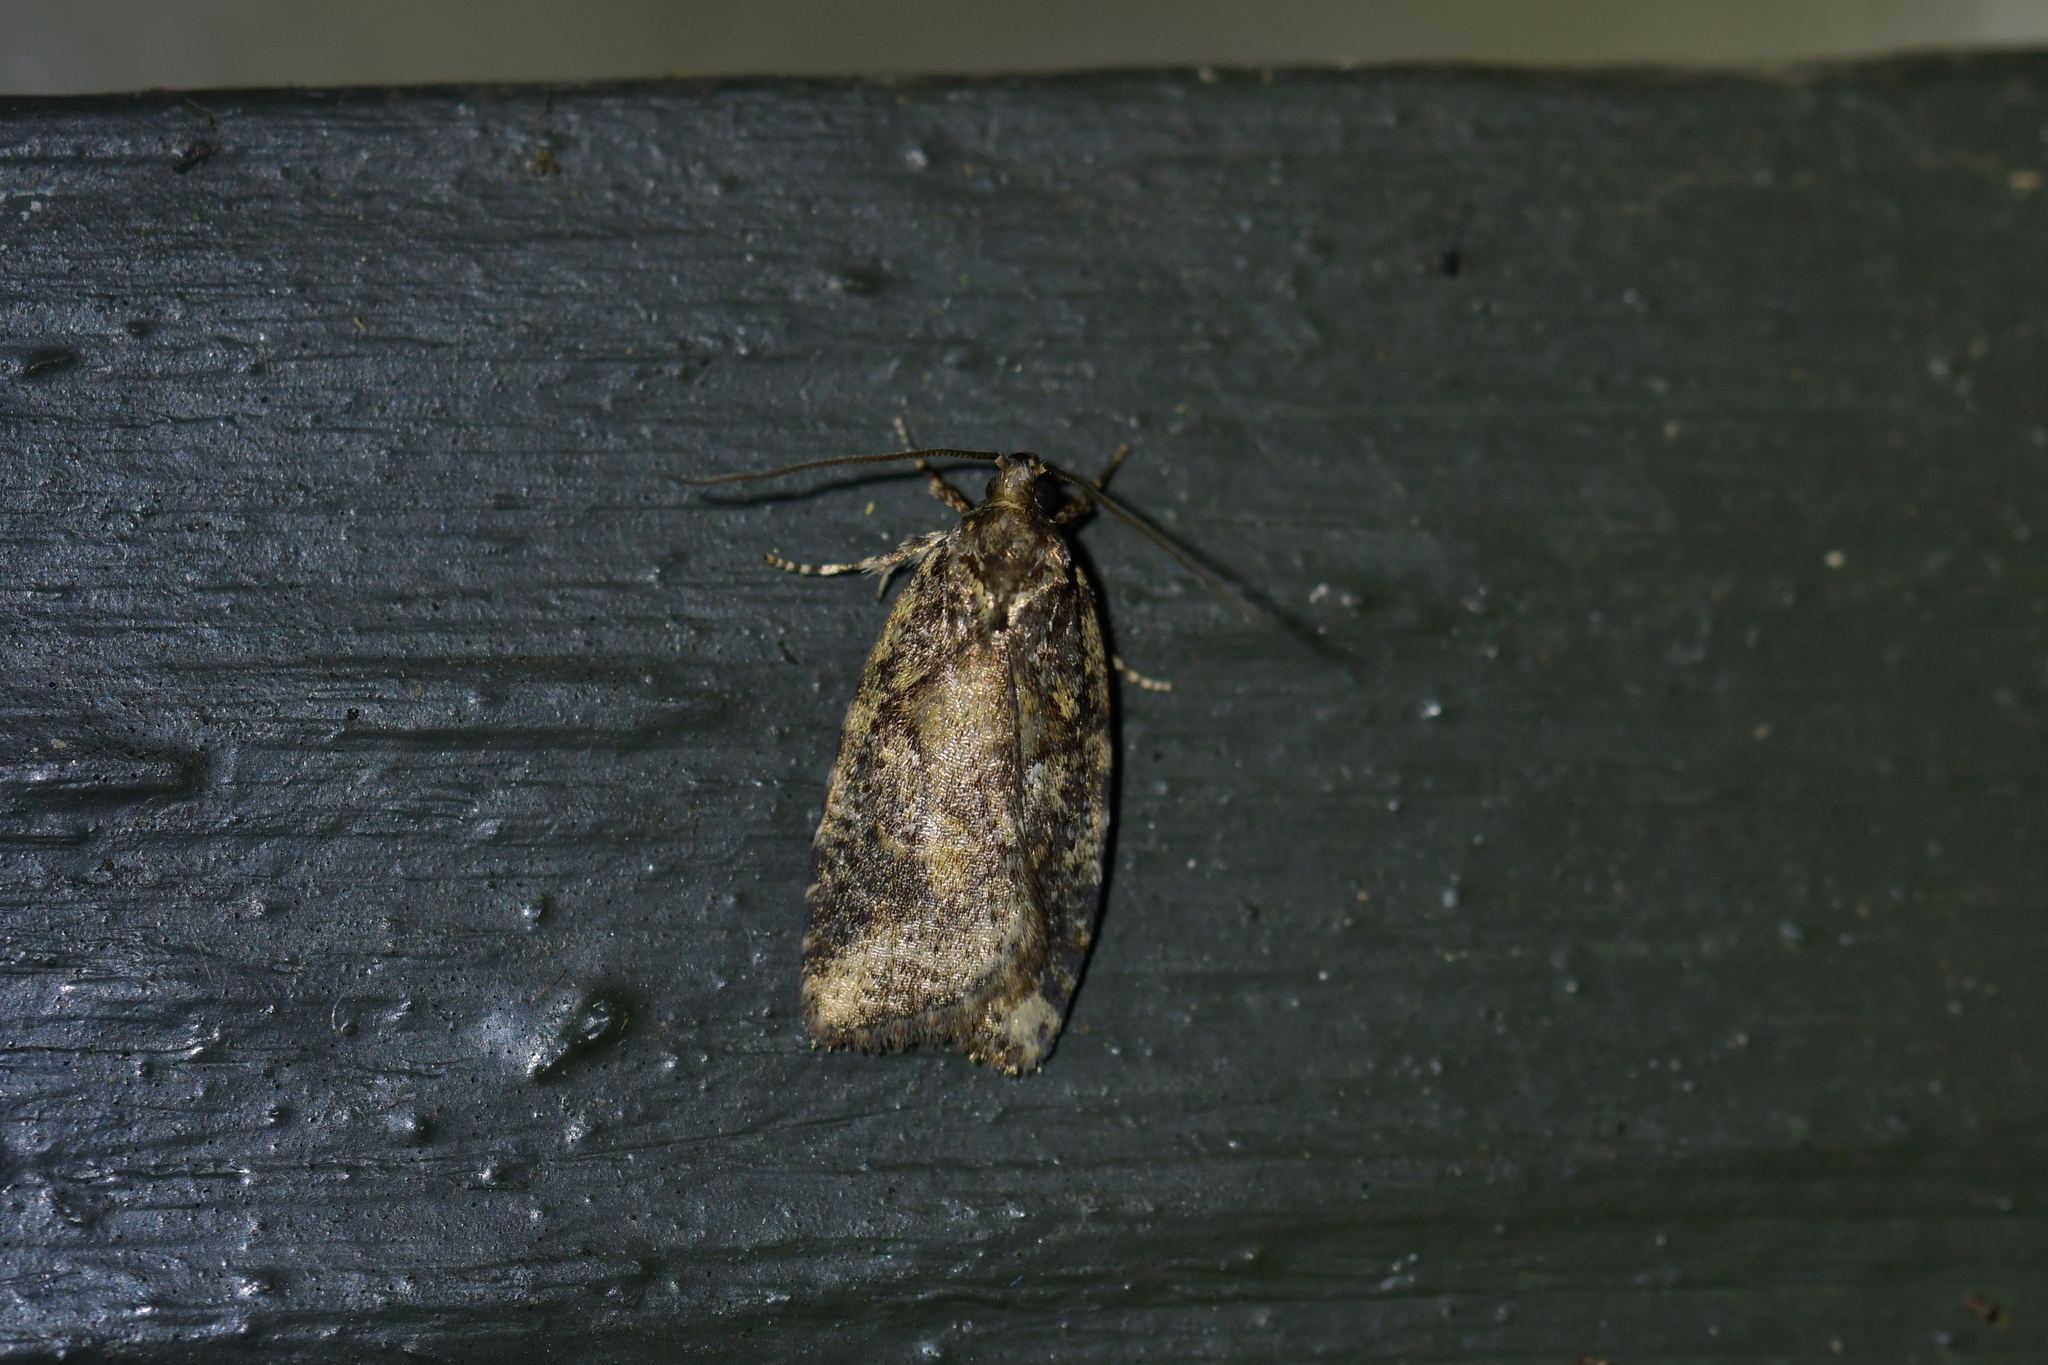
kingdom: Animalia
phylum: Arthropoda
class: Insecta
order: Lepidoptera
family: Oecophoridae
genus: Proteodes
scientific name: Proteodes profunda
